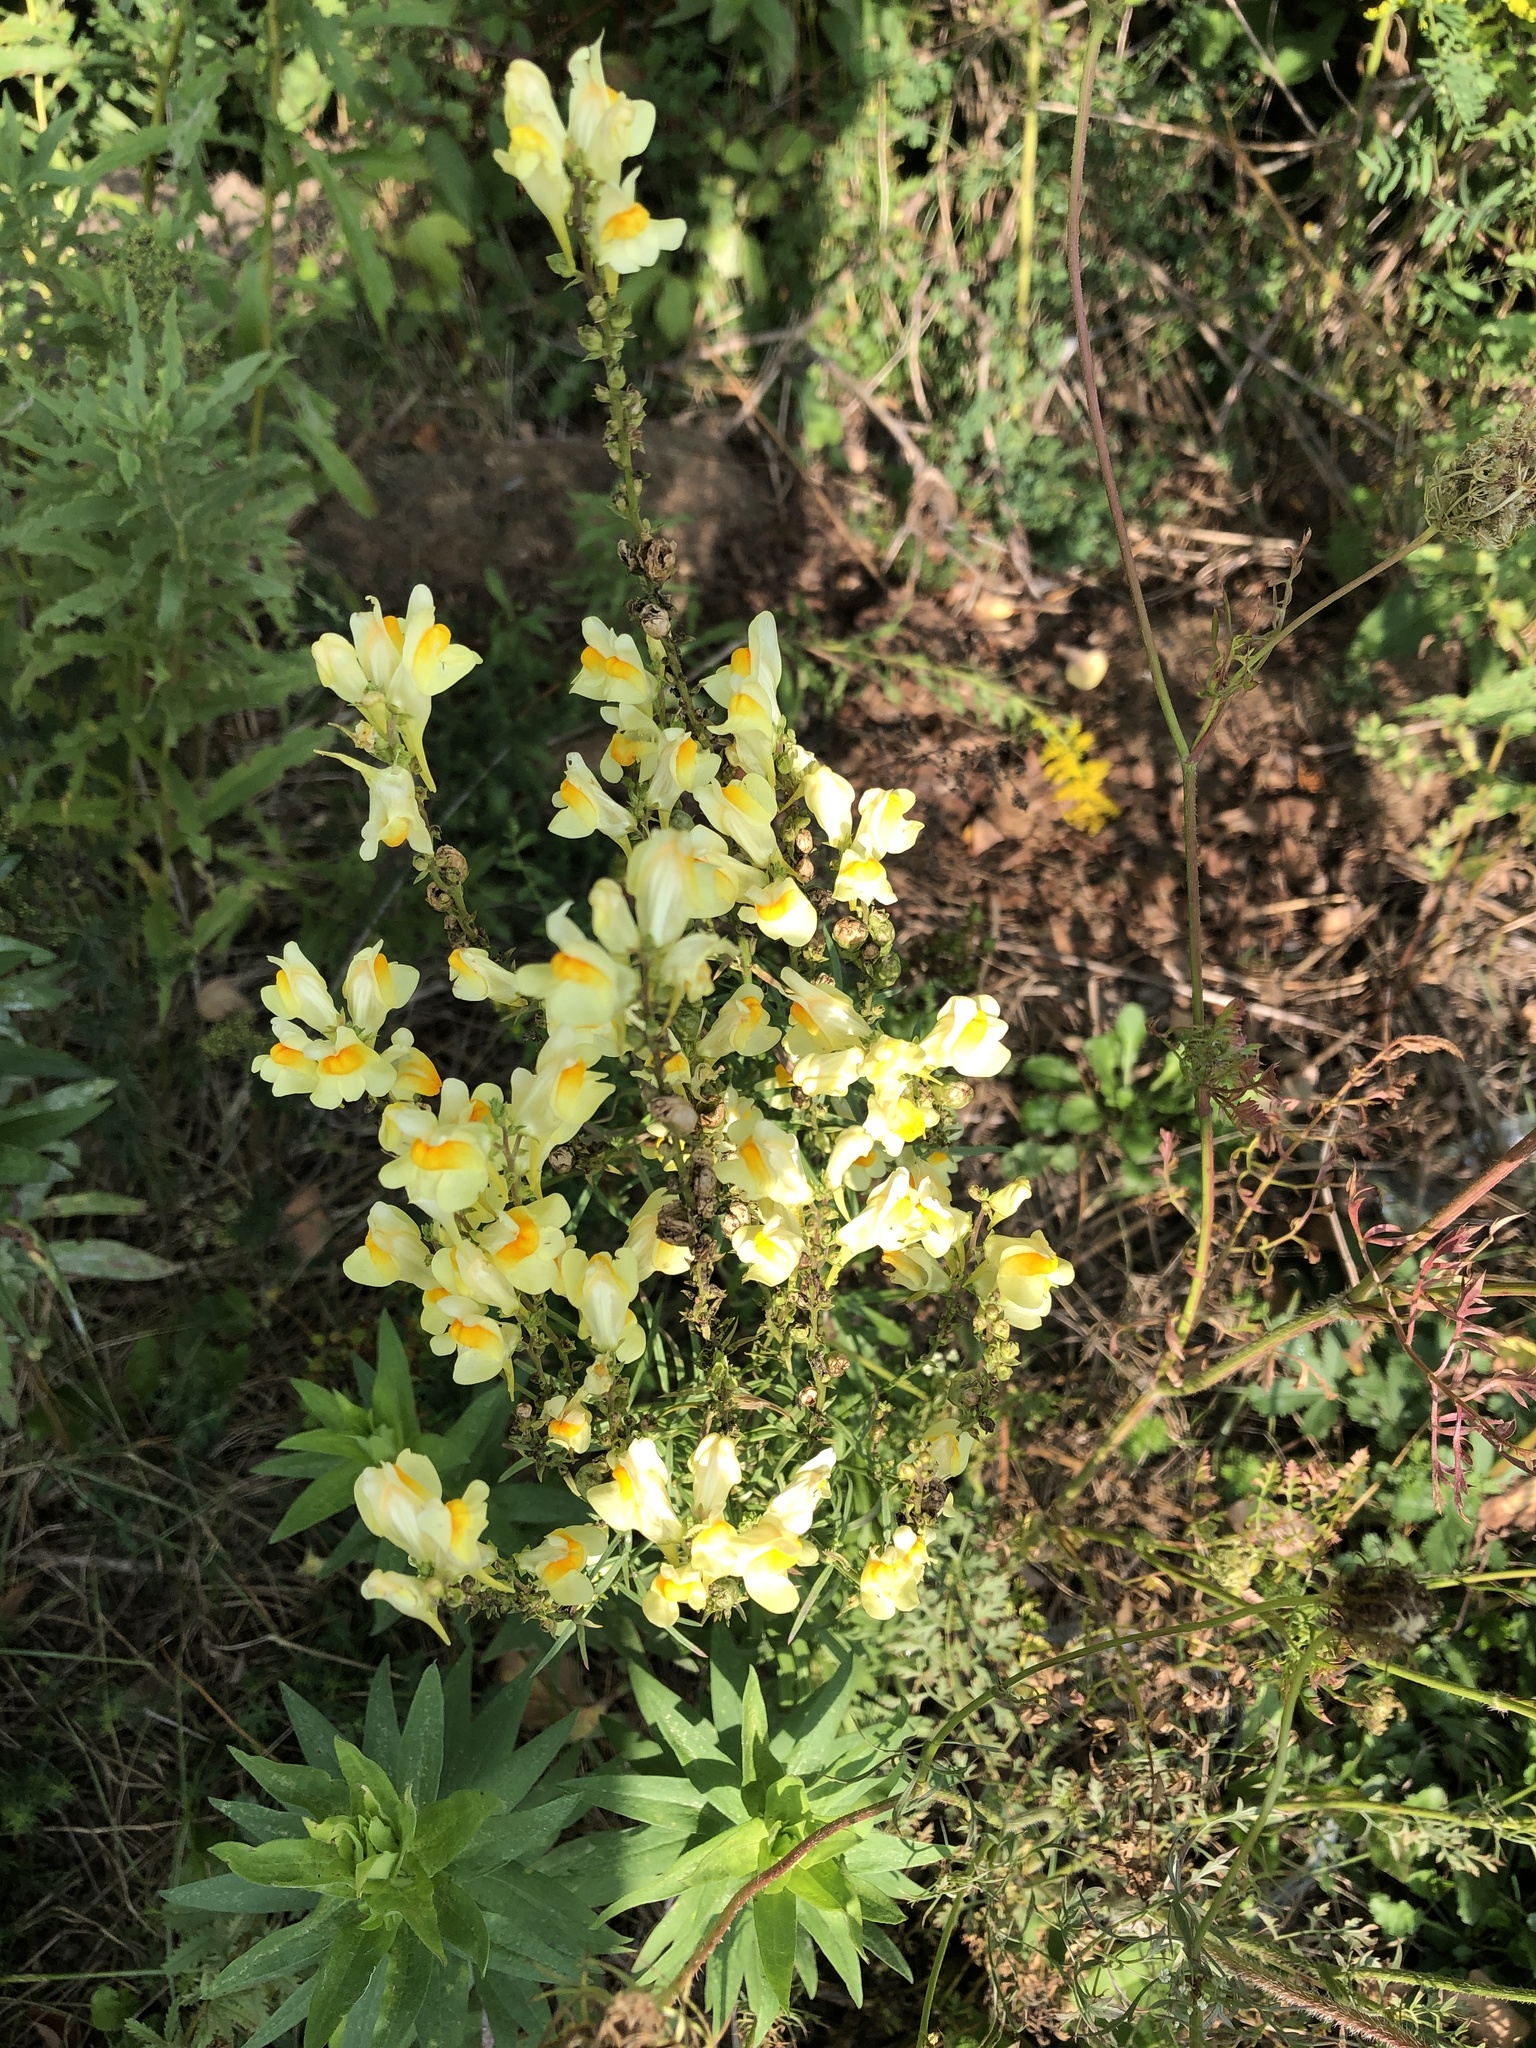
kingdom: Plantae
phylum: Tracheophyta
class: Magnoliopsida
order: Lamiales
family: Plantaginaceae
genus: Linaria
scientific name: Linaria vulgaris
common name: Butter and eggs
